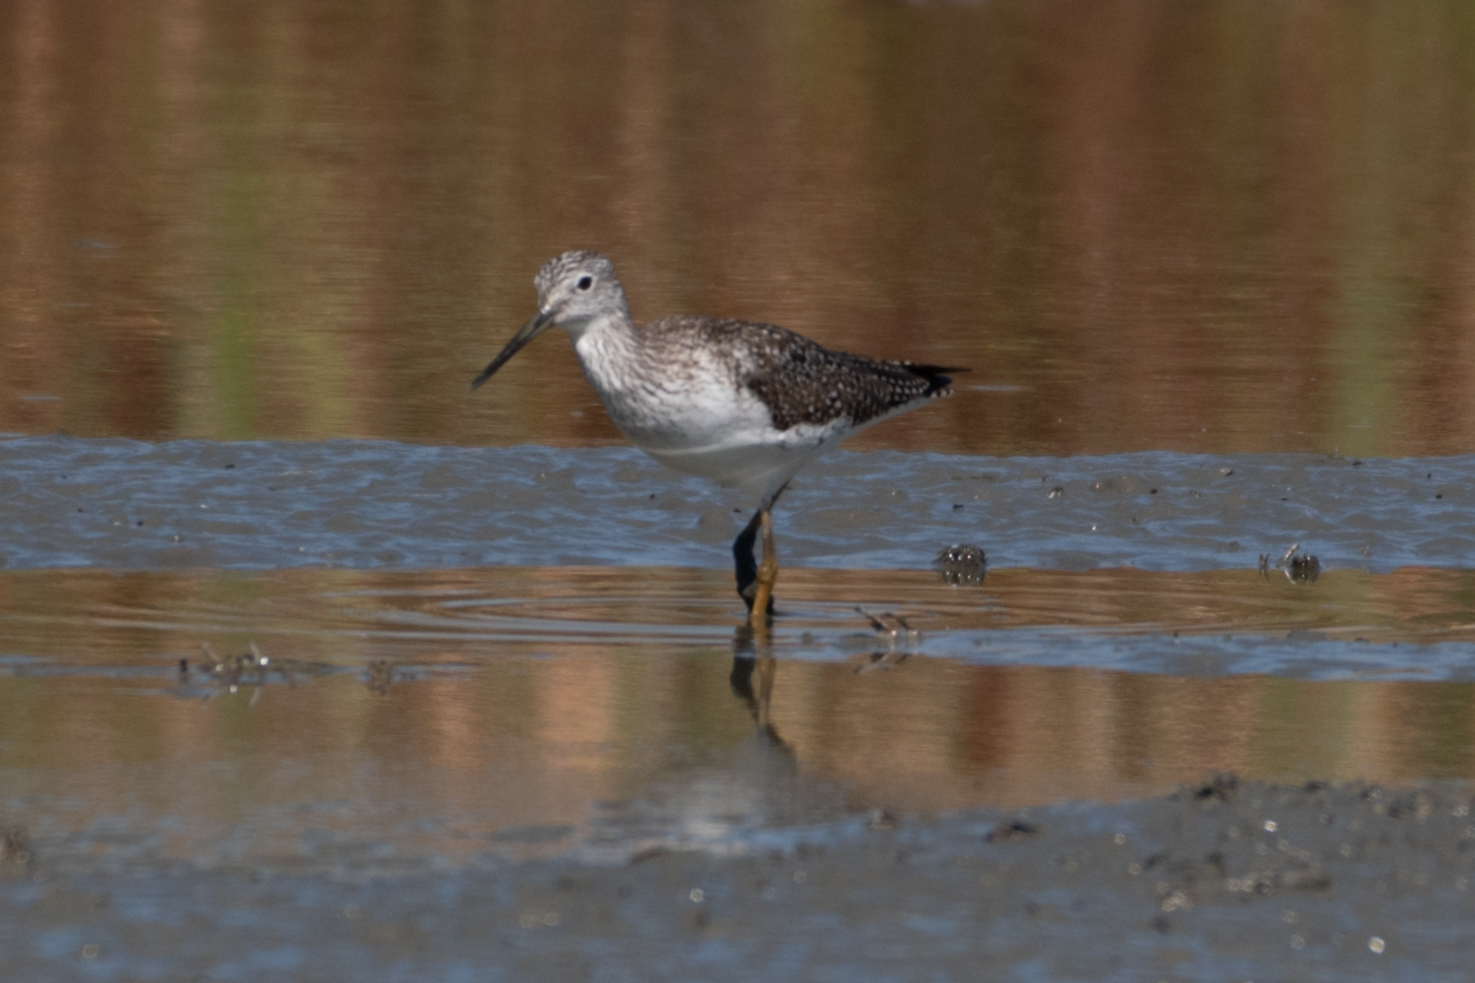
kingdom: Animalia
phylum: Chordata
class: Aves
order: Charadriiformes
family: Scolopacidae
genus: Tringa
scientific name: Tringa melanoleuca
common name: Greater yellowlegs
